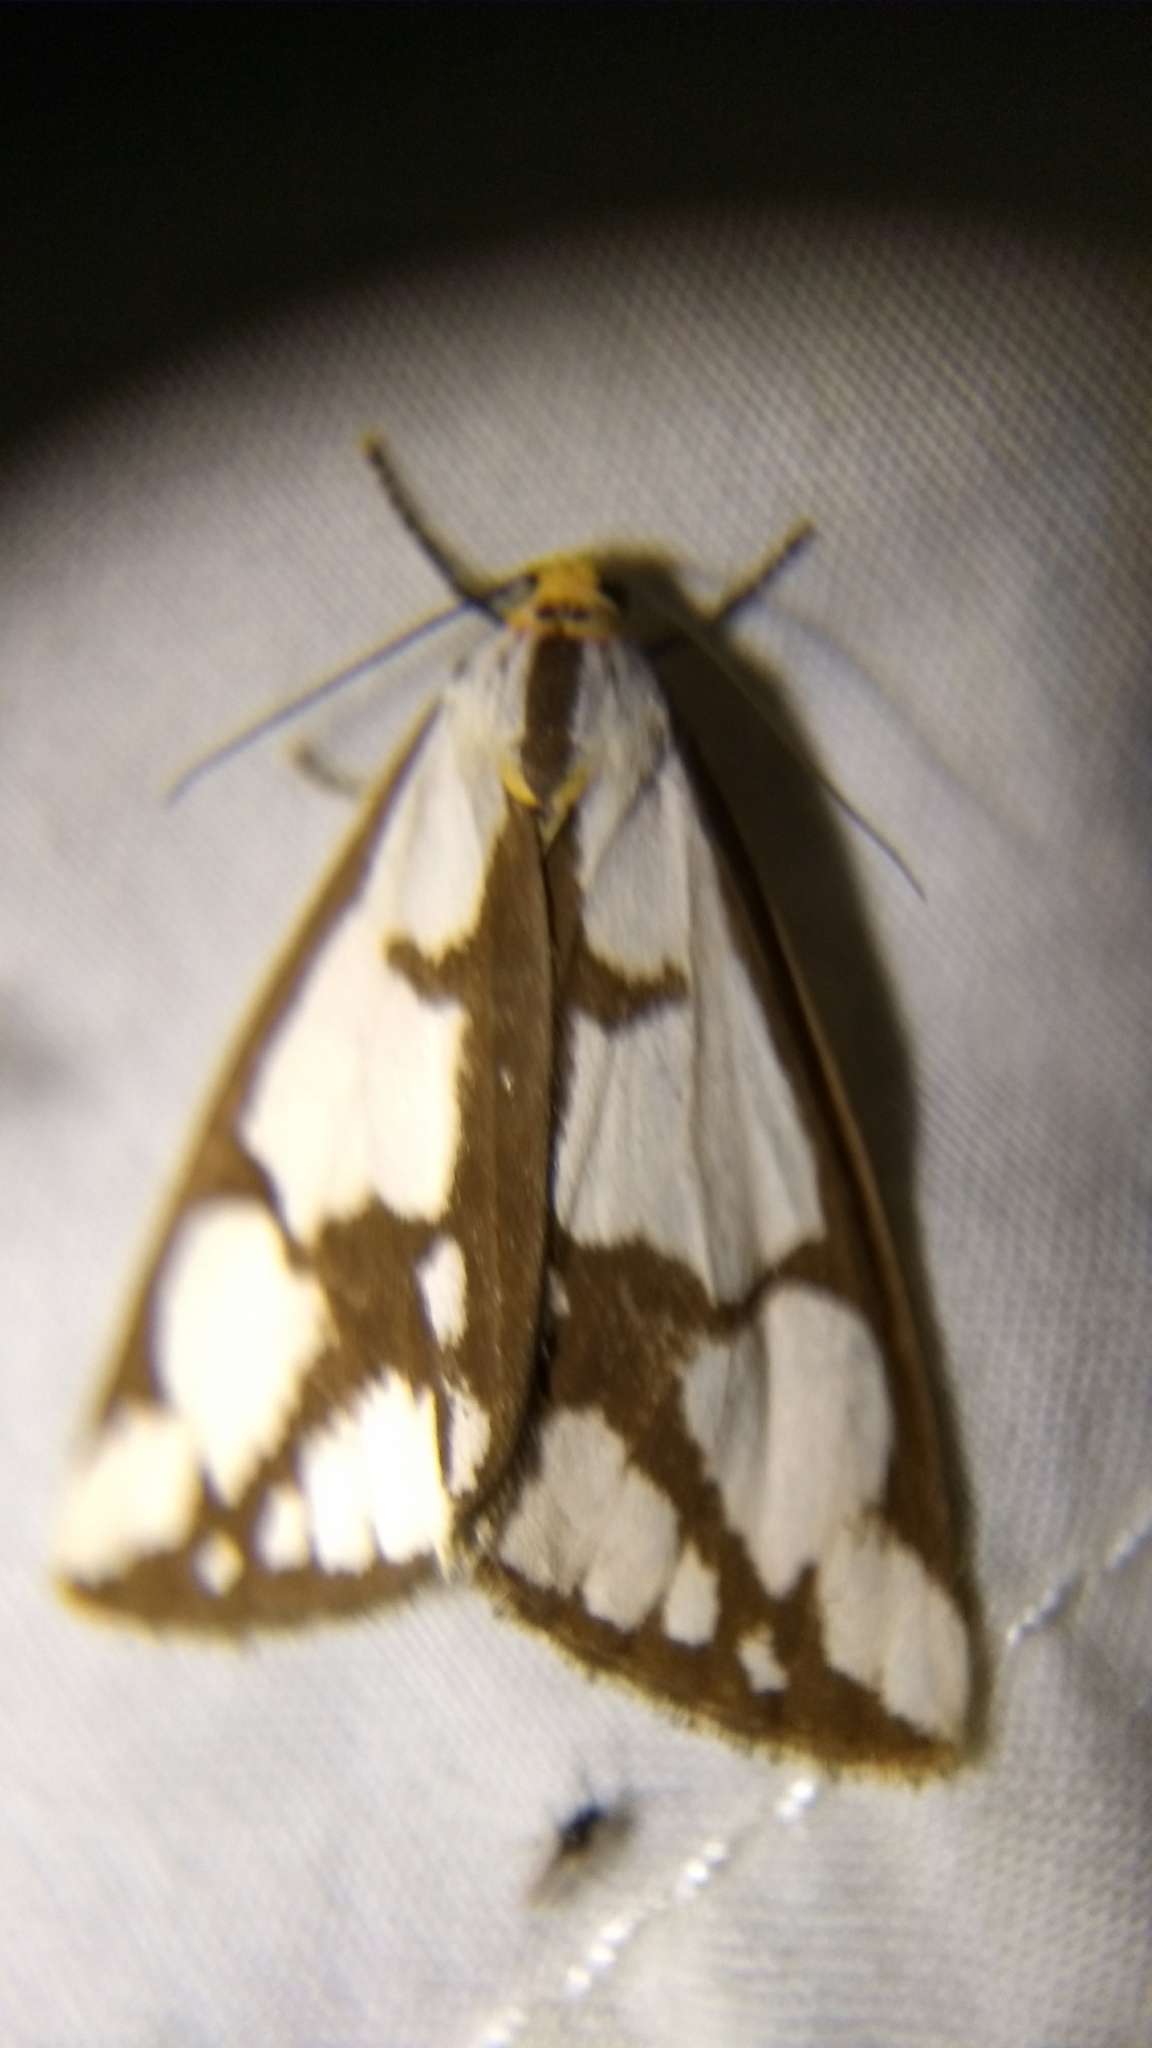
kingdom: Animalia
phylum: Arthropoda
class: Insecta
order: Lepidoptera
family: Erebidae
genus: Haploa
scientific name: Haploa lecontei
